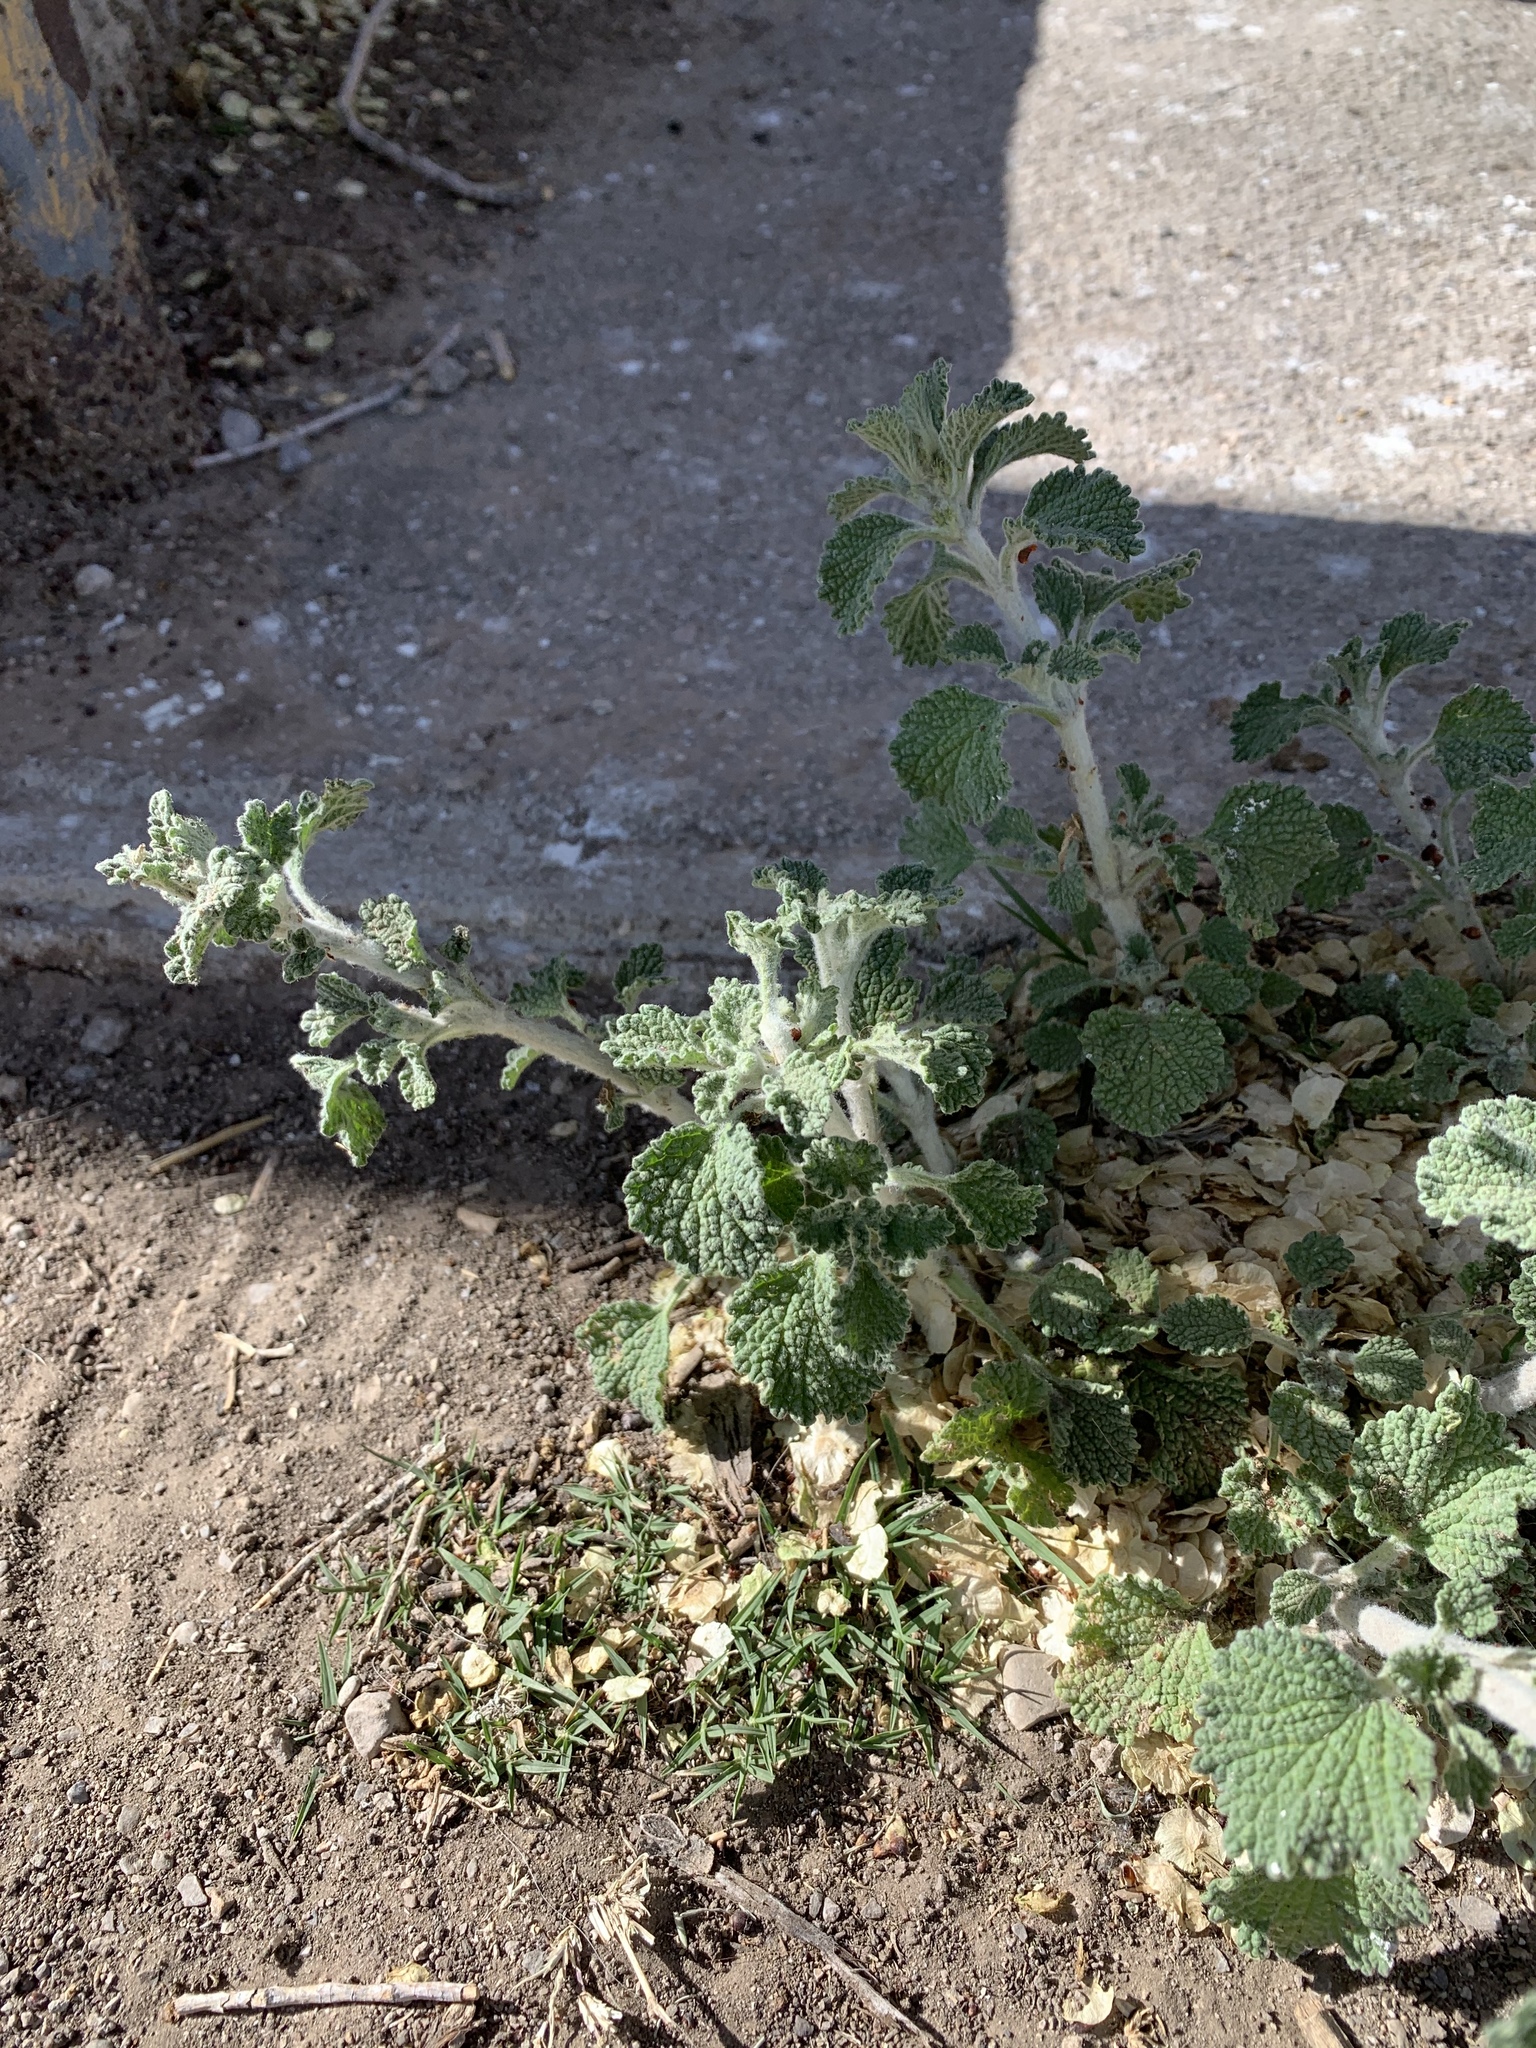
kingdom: Plantae
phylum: Tracheophyta
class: Magnoliopsida
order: Lamiales
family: Lamiaceae
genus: Marrubium
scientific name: Marrubium vulgare
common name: Horehound
